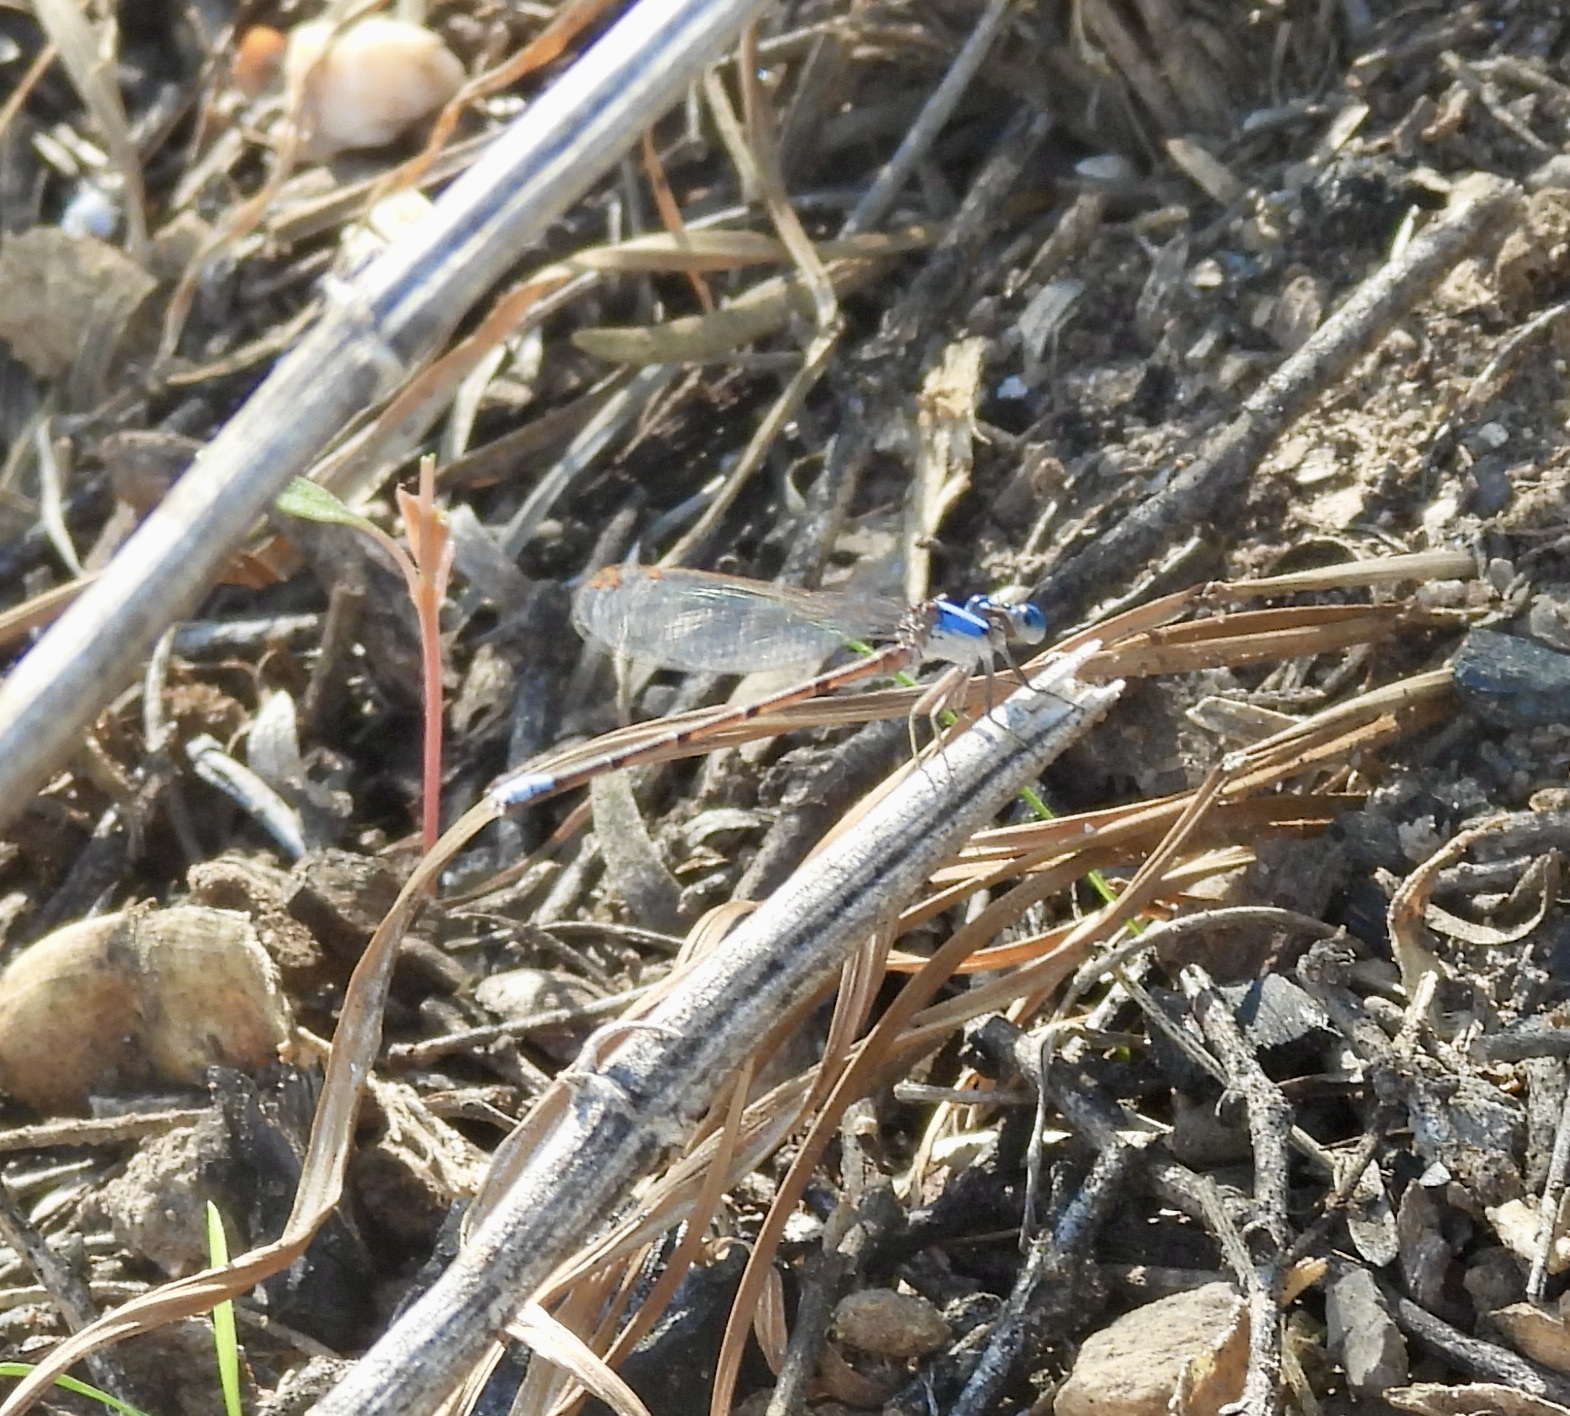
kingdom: Animalia
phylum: Arthropoda
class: Insecta
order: Odonata
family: Coenagrionidae
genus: Argia
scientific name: Argia apicalis
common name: Blue-fronted dancer
